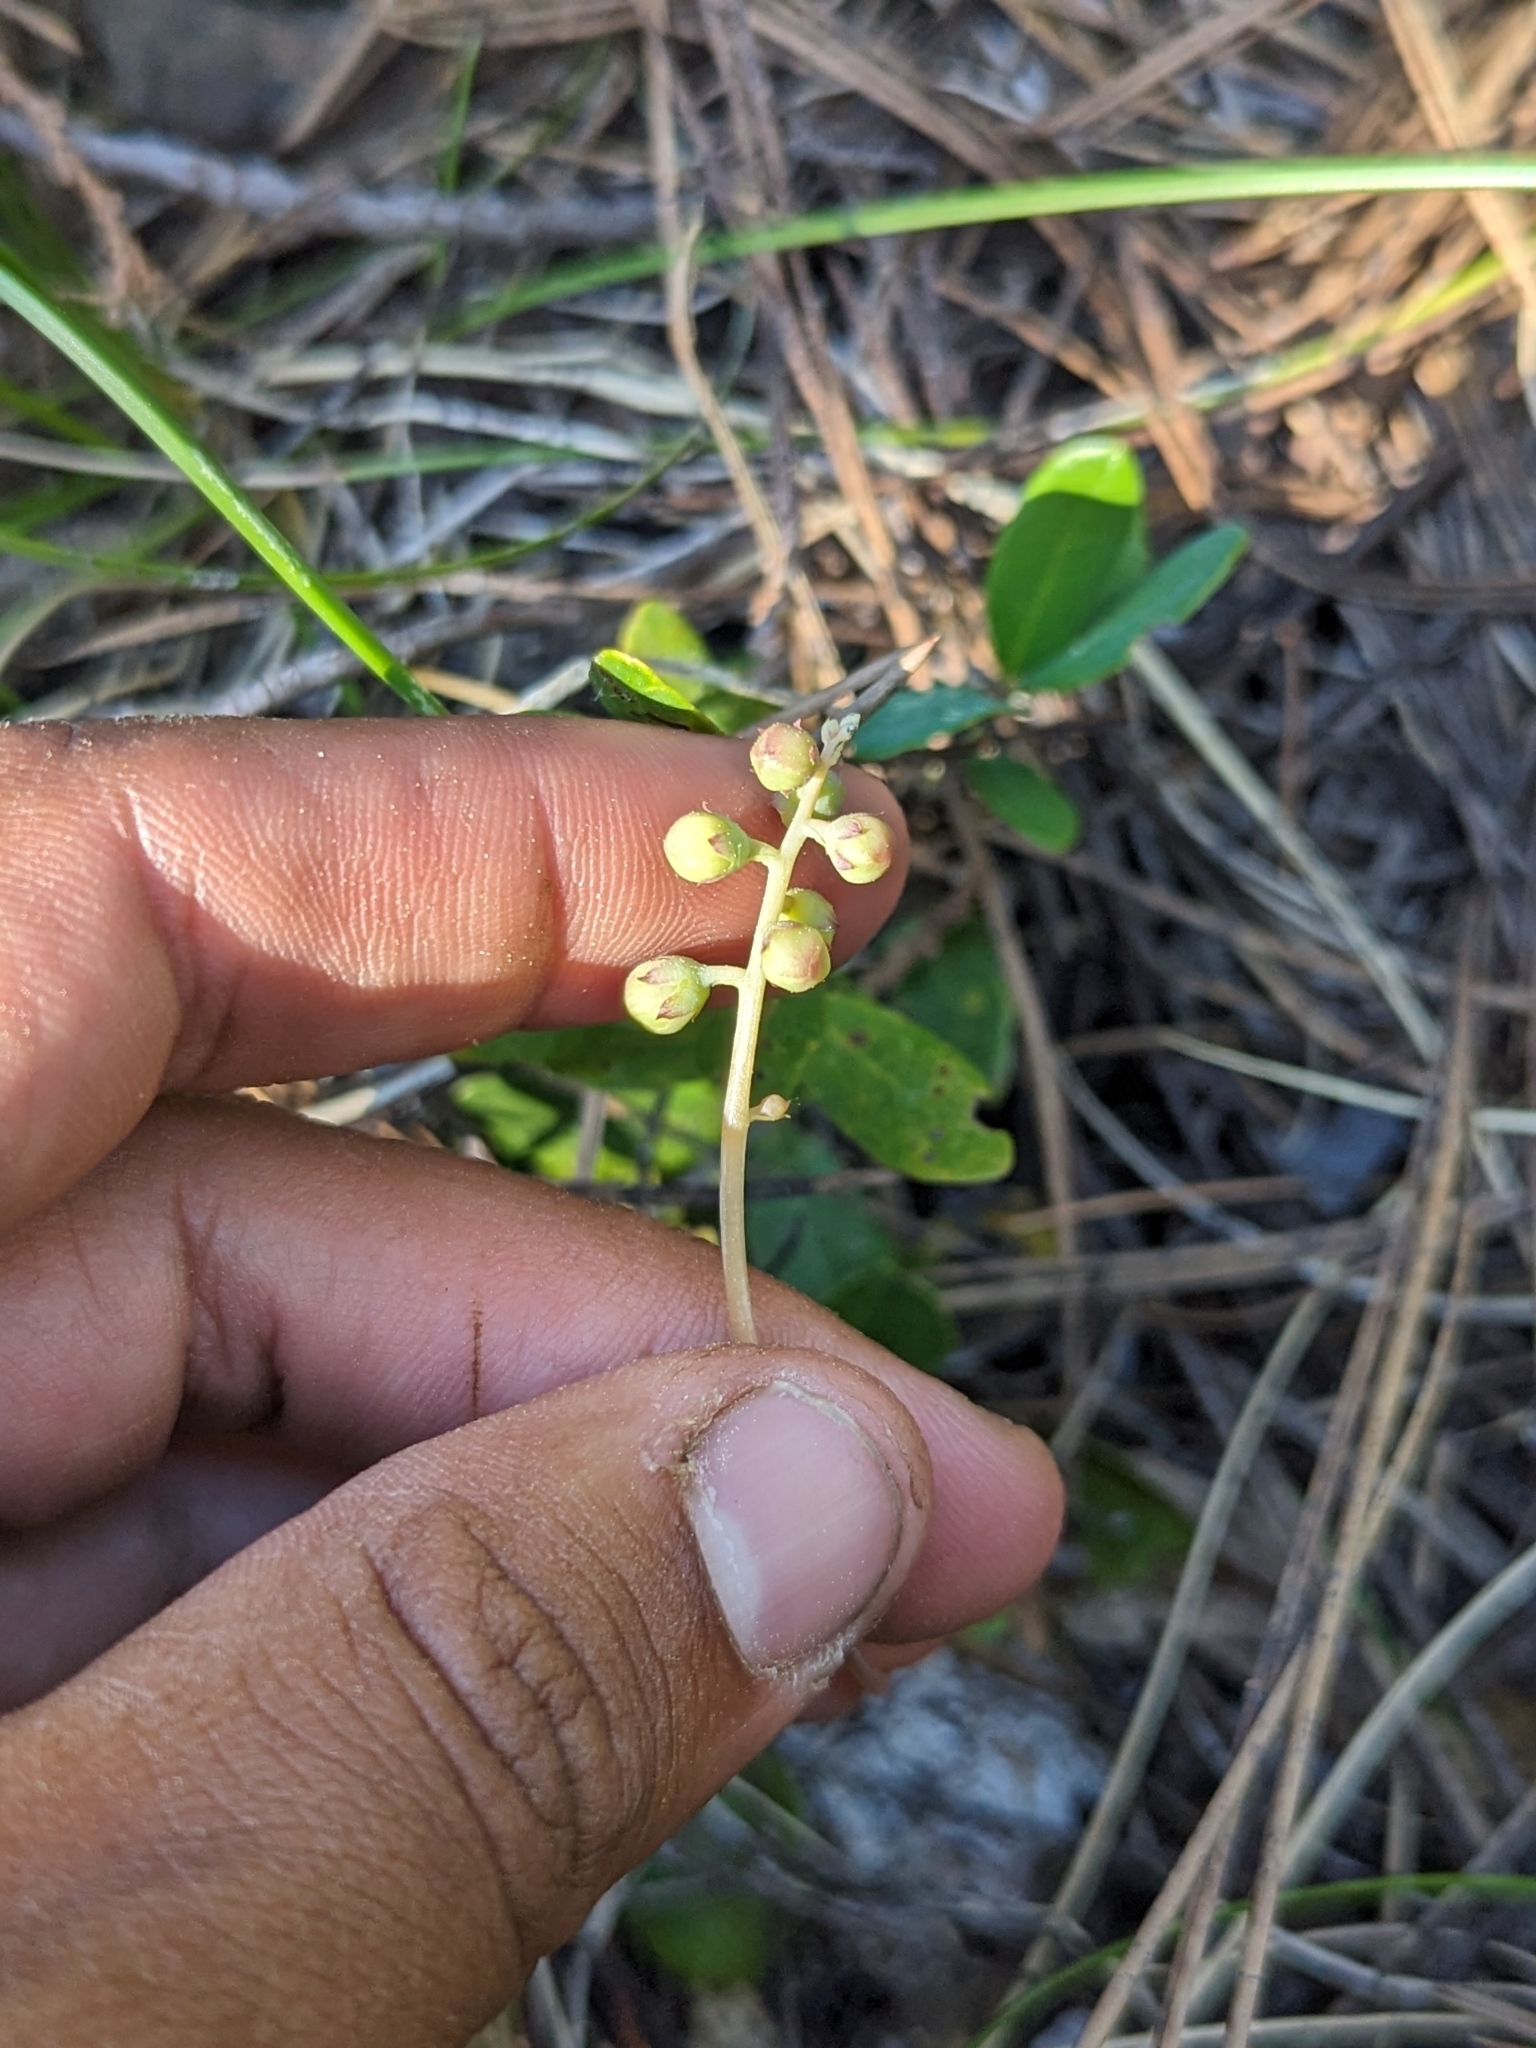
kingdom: Plantae
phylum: Tracheophyta
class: Magnoliopsida
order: Ericales
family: Ericaceae
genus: Pyrola
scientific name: Pyrola dentata
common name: Tooth-leaved wintergreen
